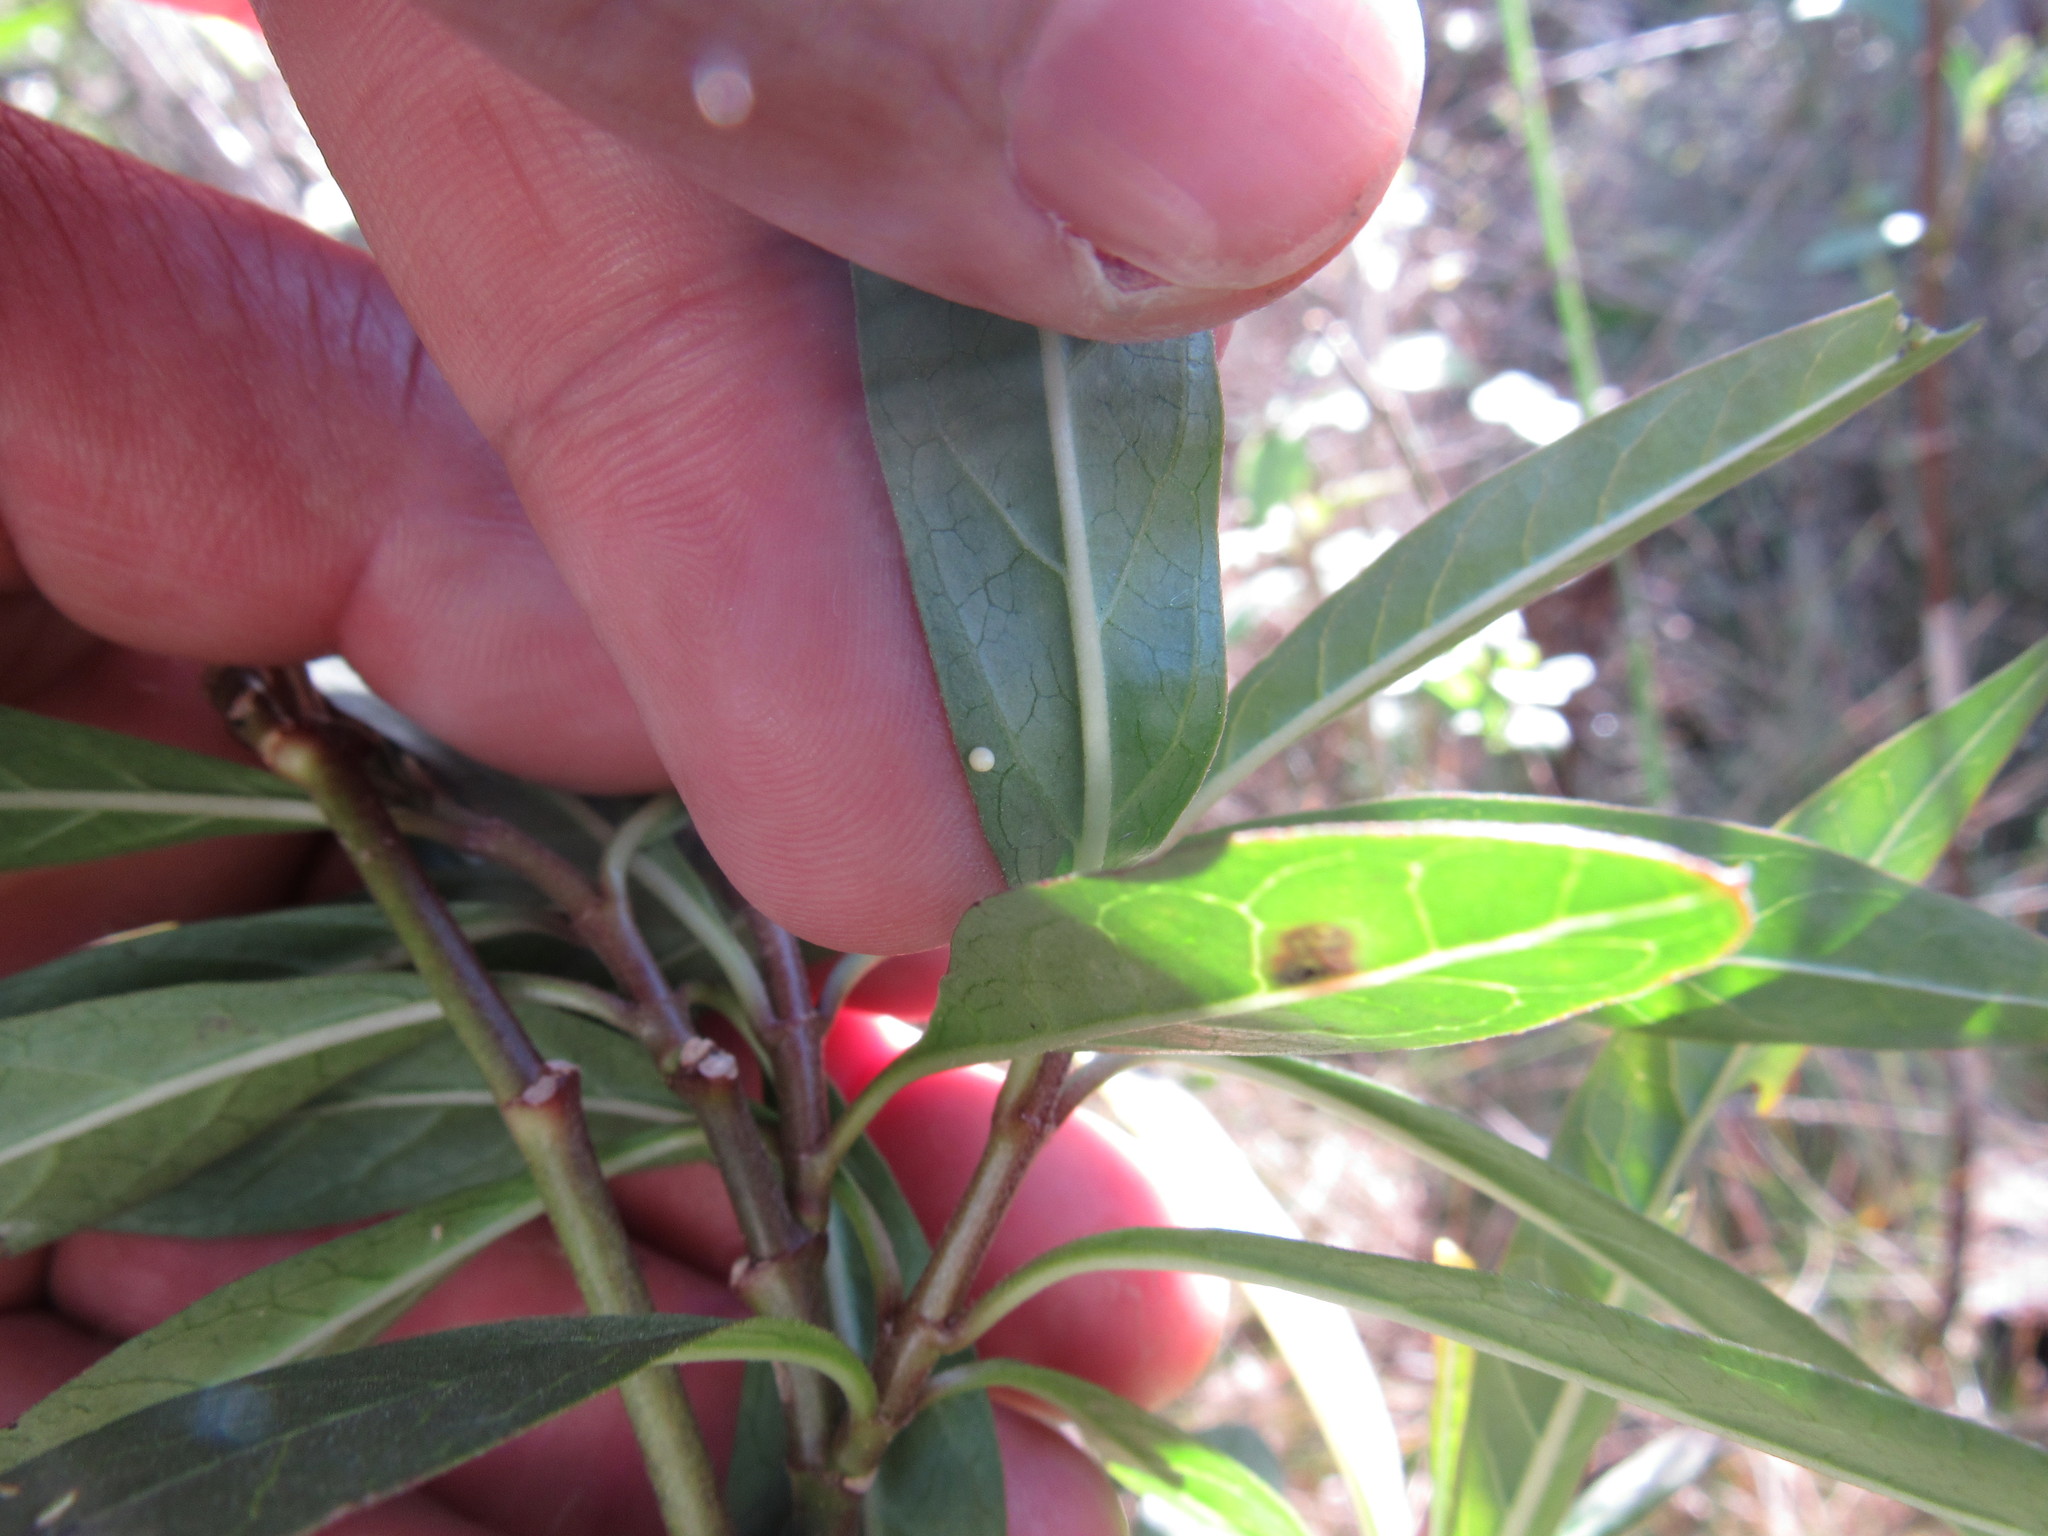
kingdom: Animalia
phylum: Arthropoda
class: Insecta
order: Lepidoptera
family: Nymphalidae
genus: Danaus
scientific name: Danaus plexippus
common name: Monarch
